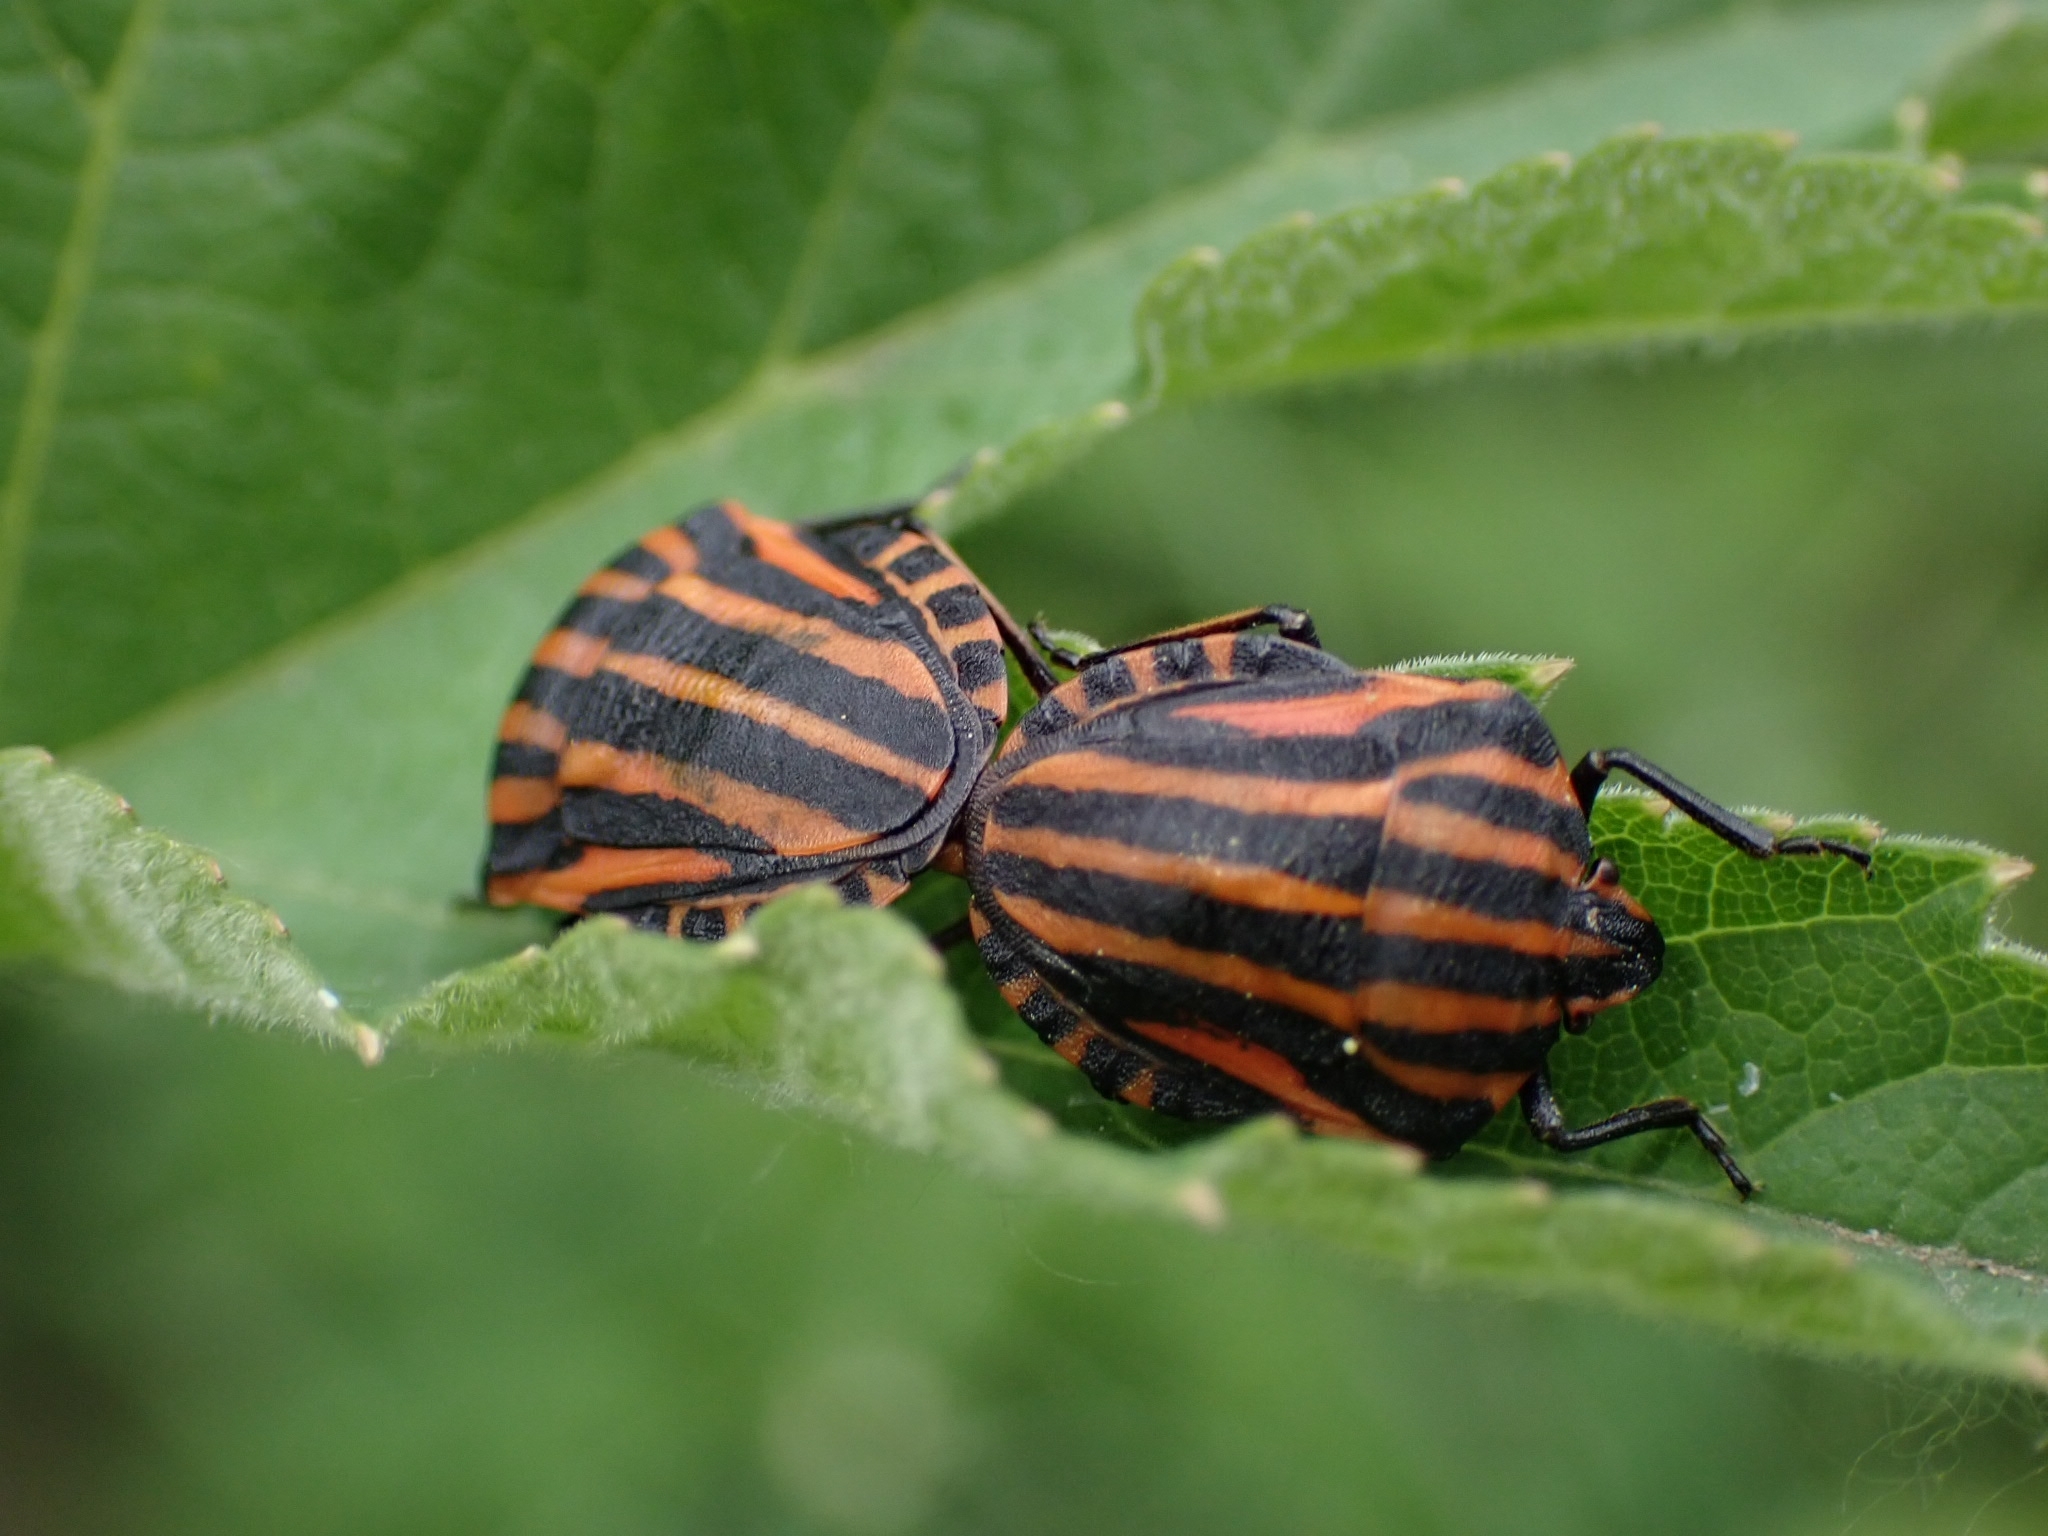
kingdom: Animalia
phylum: Arthropoda
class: Insecta
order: Hemiptera
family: Pentatomidae
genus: Graphosoma
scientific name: Graphosoma italicum
